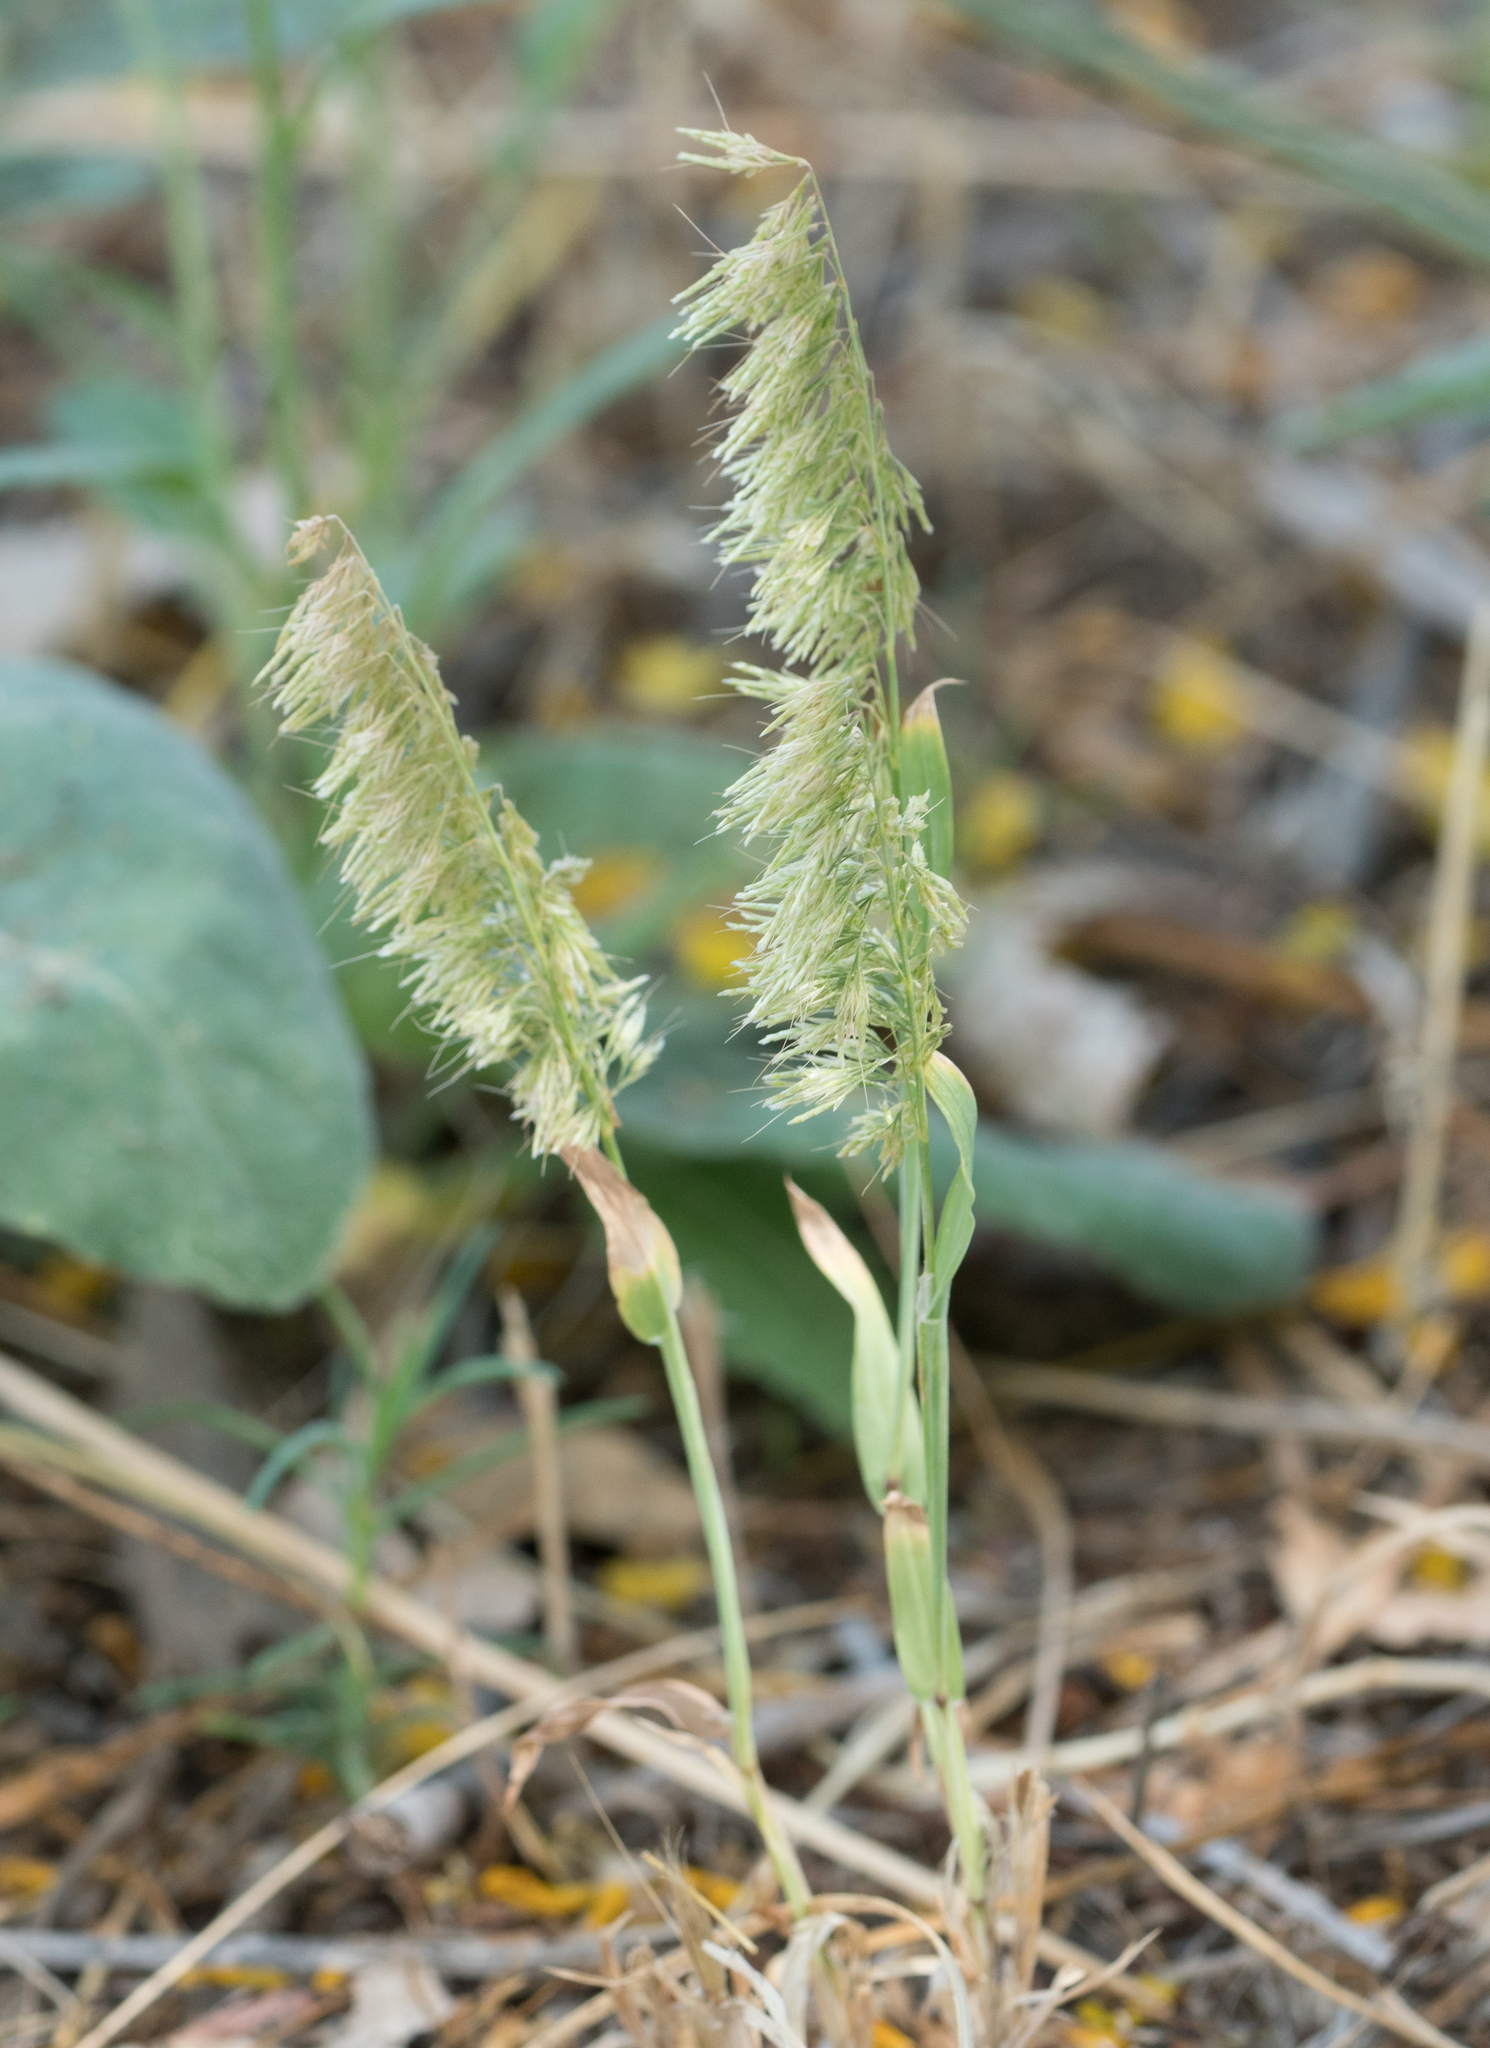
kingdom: Plantae
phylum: Tracheophyta
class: Liliopsida
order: Poales
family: Poaceae
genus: Lamarckia
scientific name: Lamarckia aurea
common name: Golden dog's-tail
